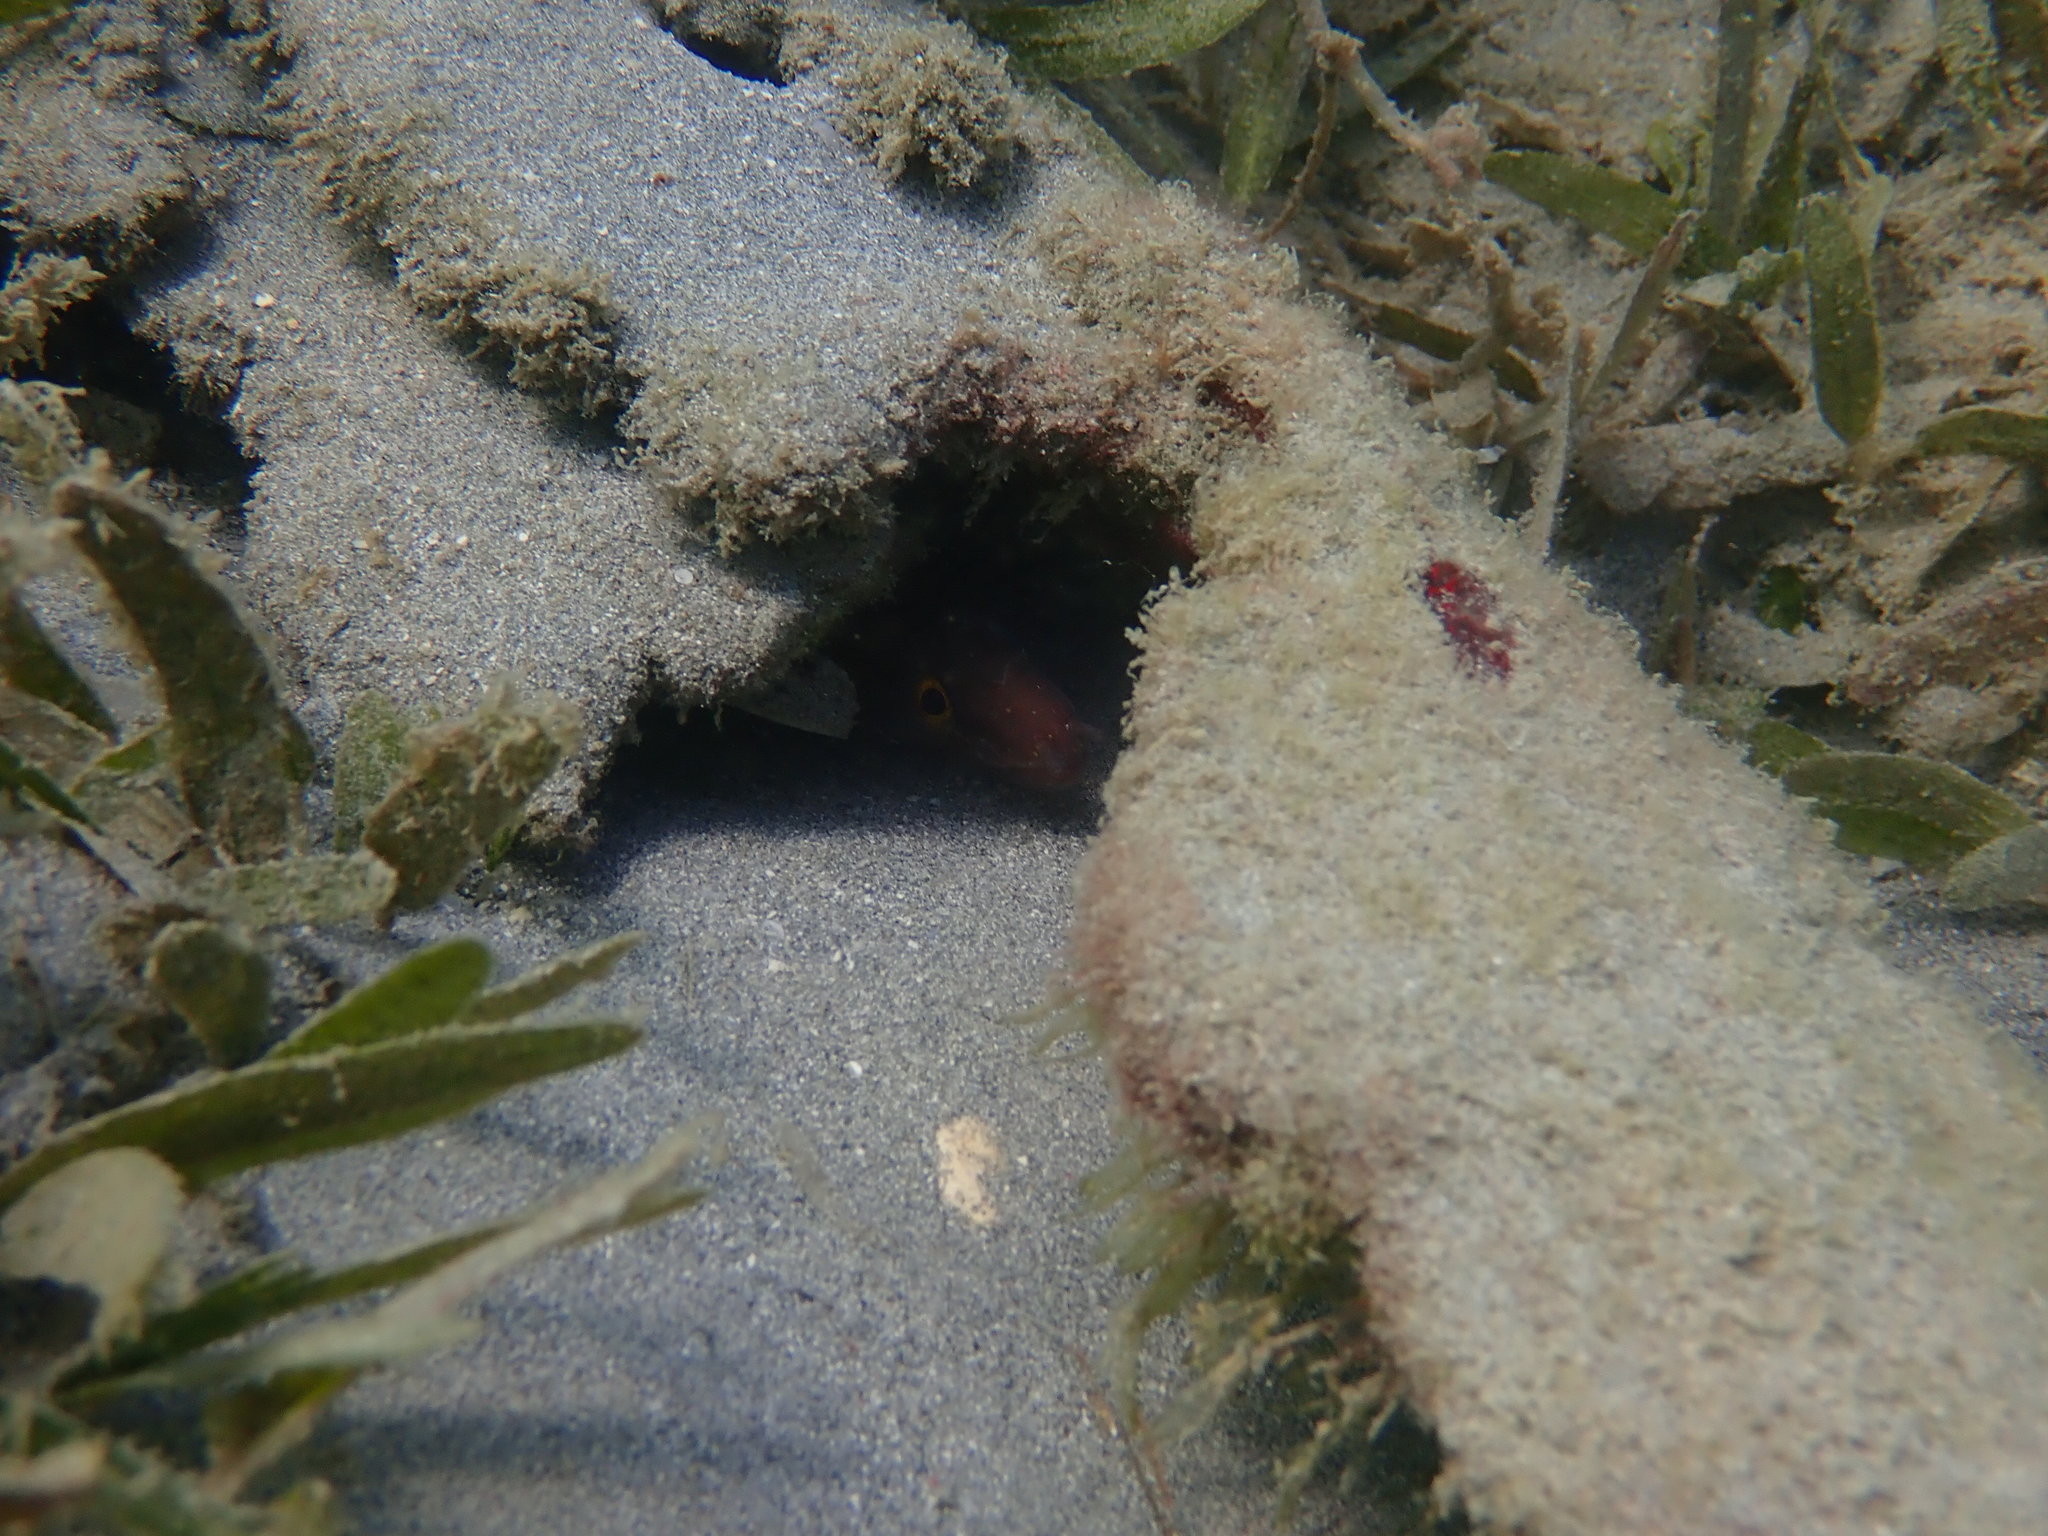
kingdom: Animalia
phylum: Chordata
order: Anguilliformes
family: Muraenidae
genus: Gymnothorax
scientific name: Gymnothorax vicinus
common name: Purplemouth moray
